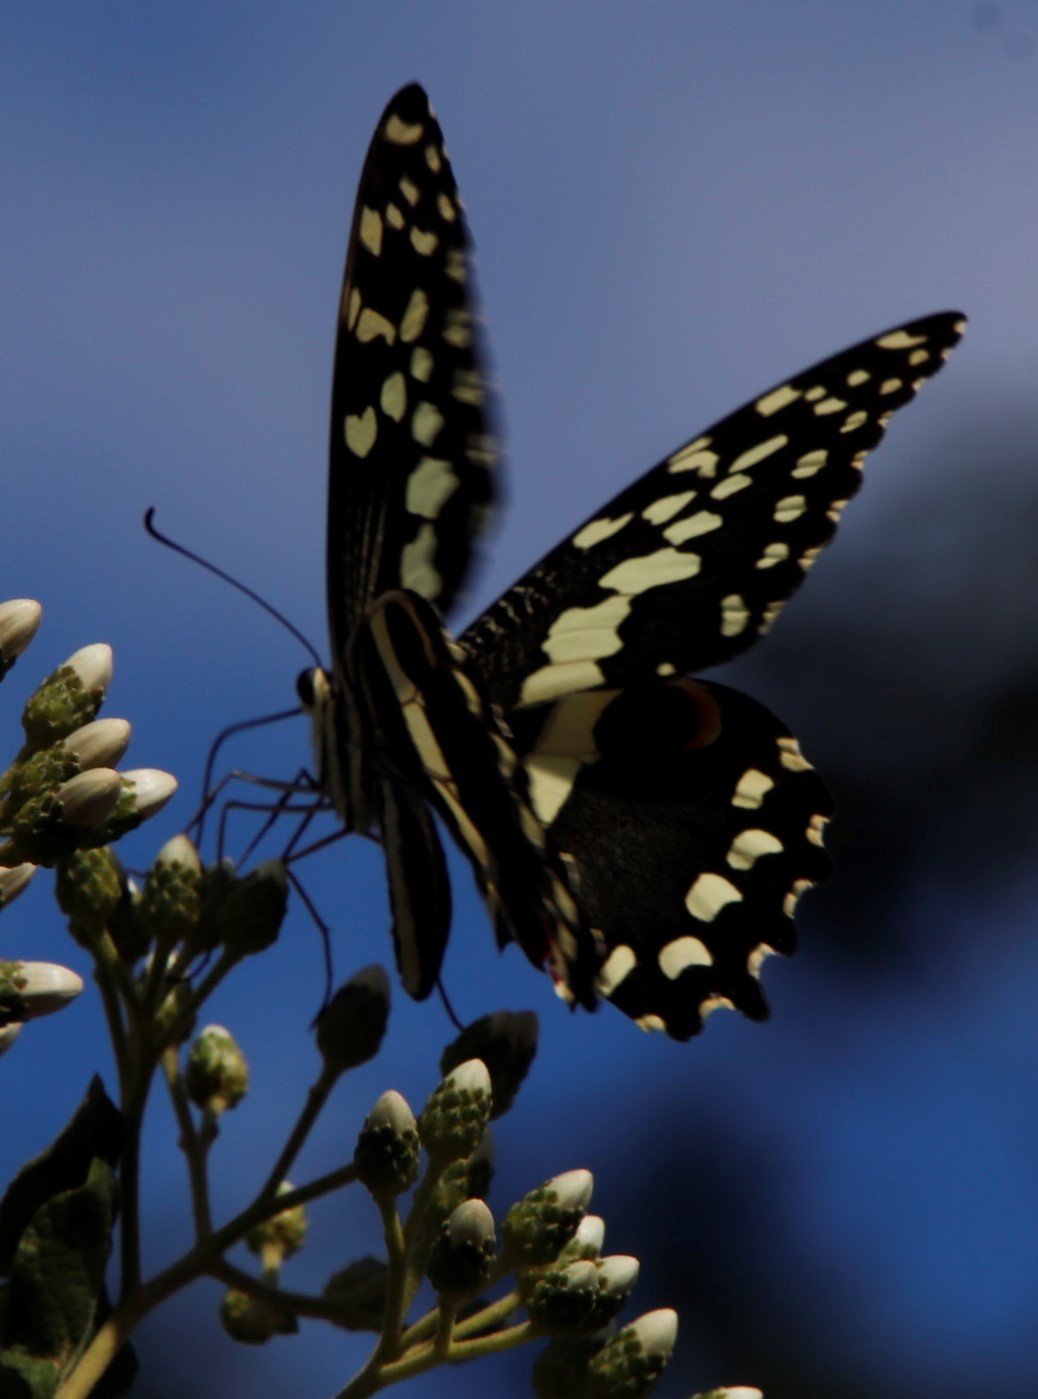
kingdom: Animalia
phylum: Arthropoda
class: Insecta
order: Lepidoptera
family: Papilionidae
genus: Papilio
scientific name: Papilio demodocus
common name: Christmas butterfly
